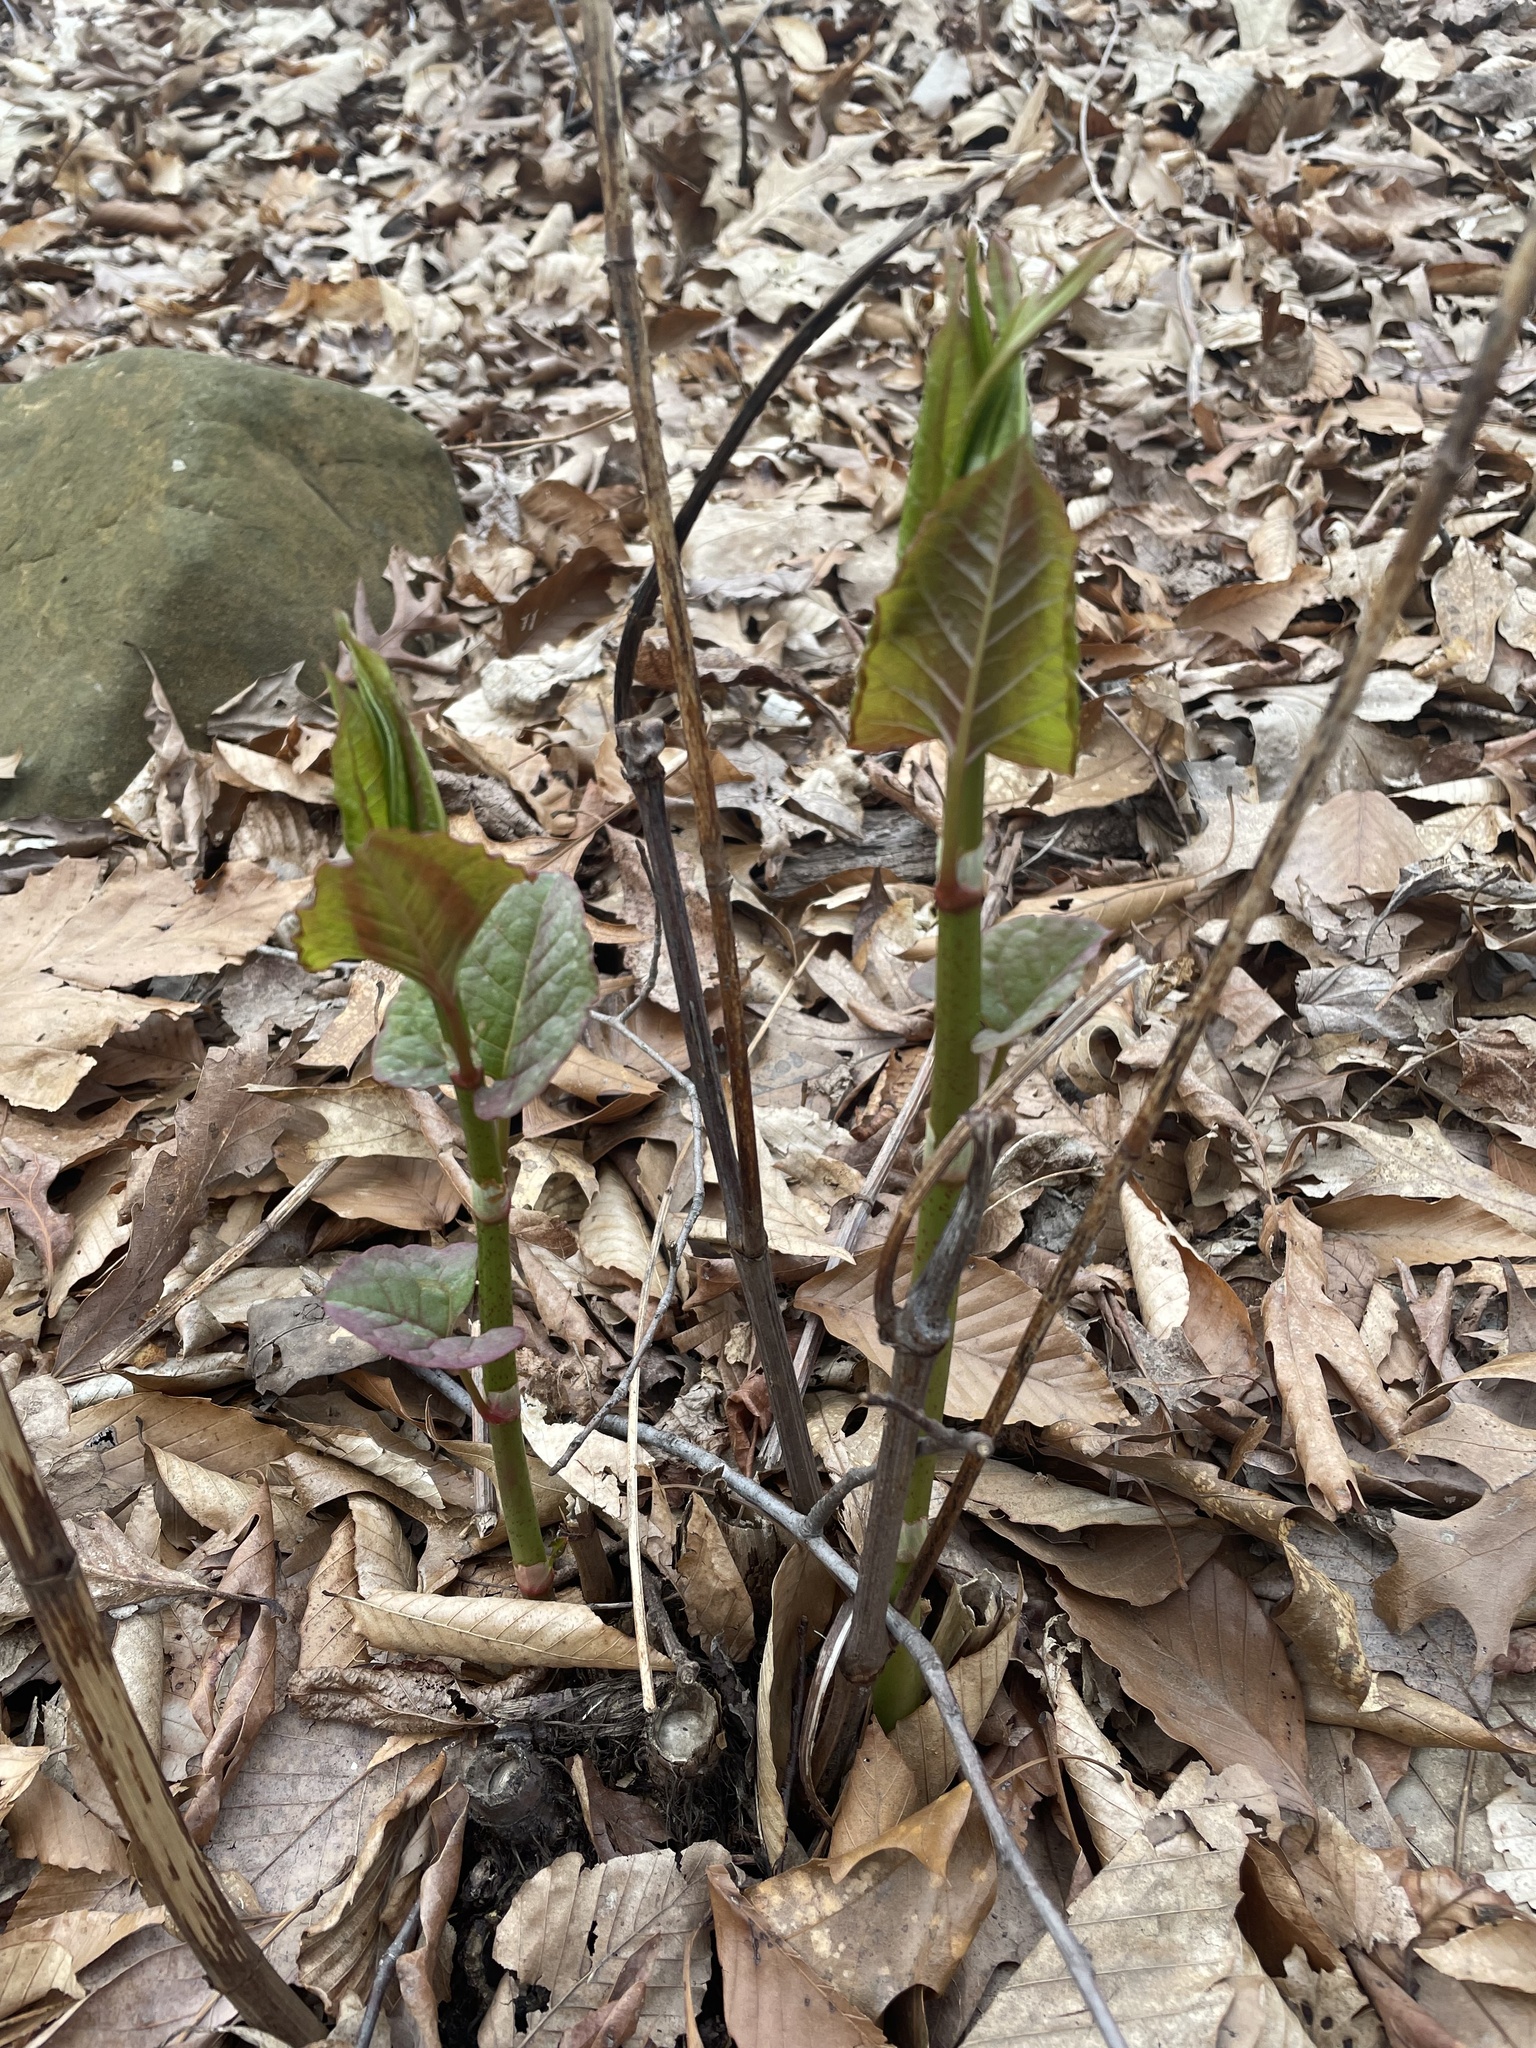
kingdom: Plantae
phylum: Tracheophyta
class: Magnoliopsida
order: Caryophyllales
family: Polygonaceae
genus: Reynoutria
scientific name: Reynoutria japonica
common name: Japanese knotweed
